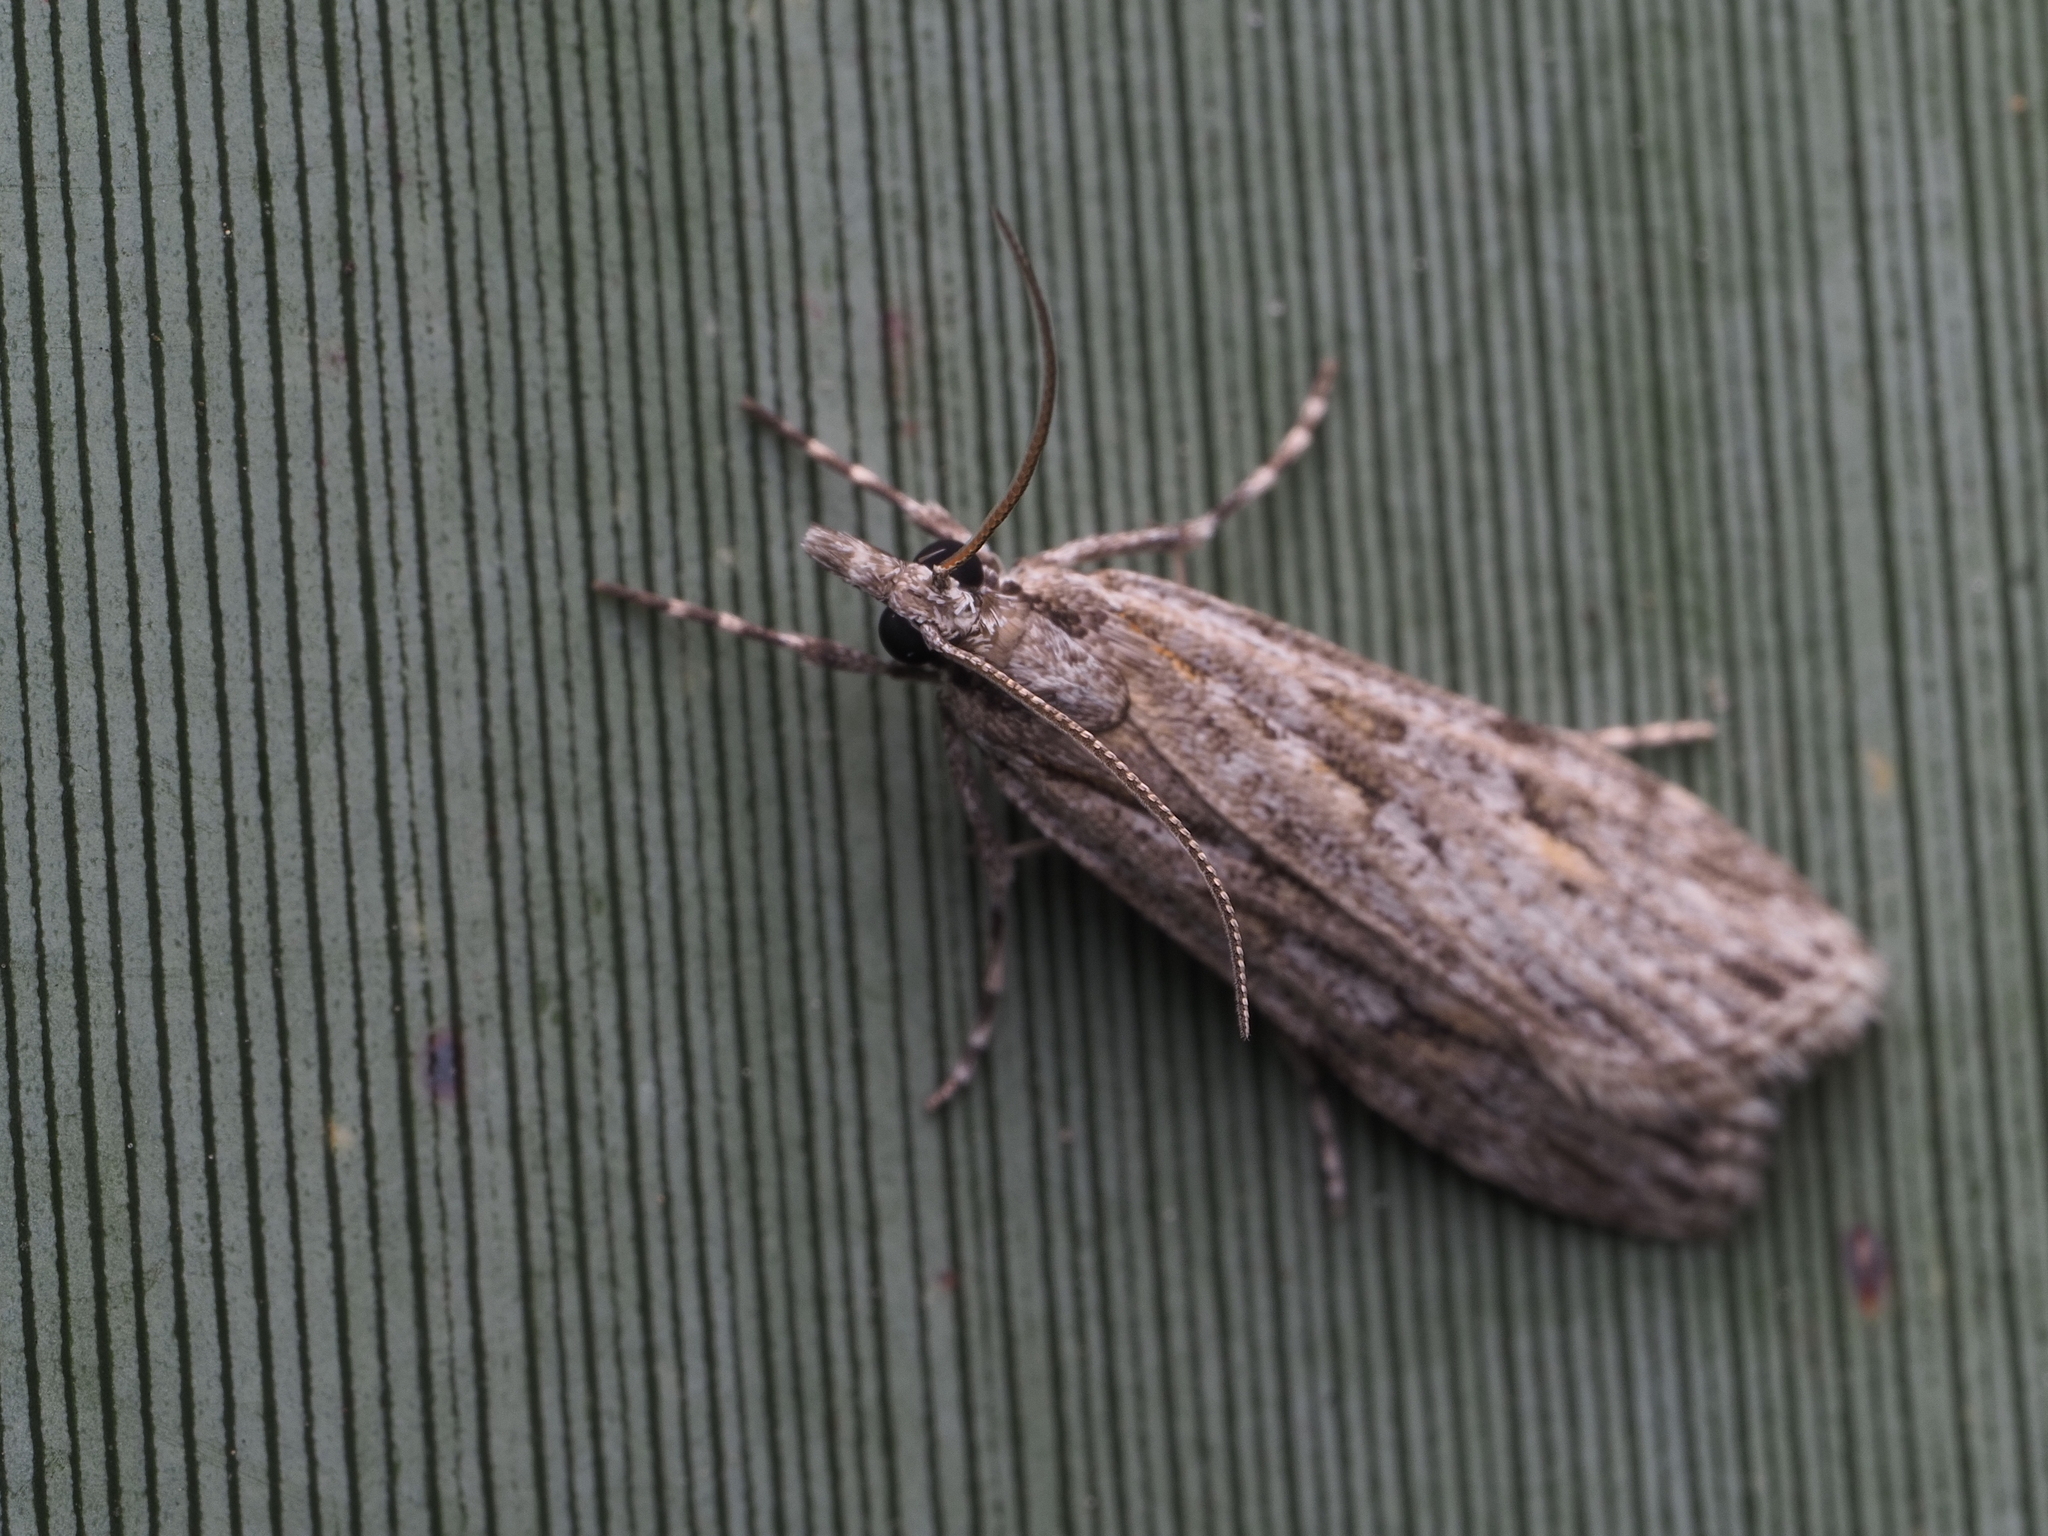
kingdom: Animalia
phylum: Arthropoda
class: Insecta
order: Lepidoptera
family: Crambidae
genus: Scoparia
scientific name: Scoparia chalicodes
